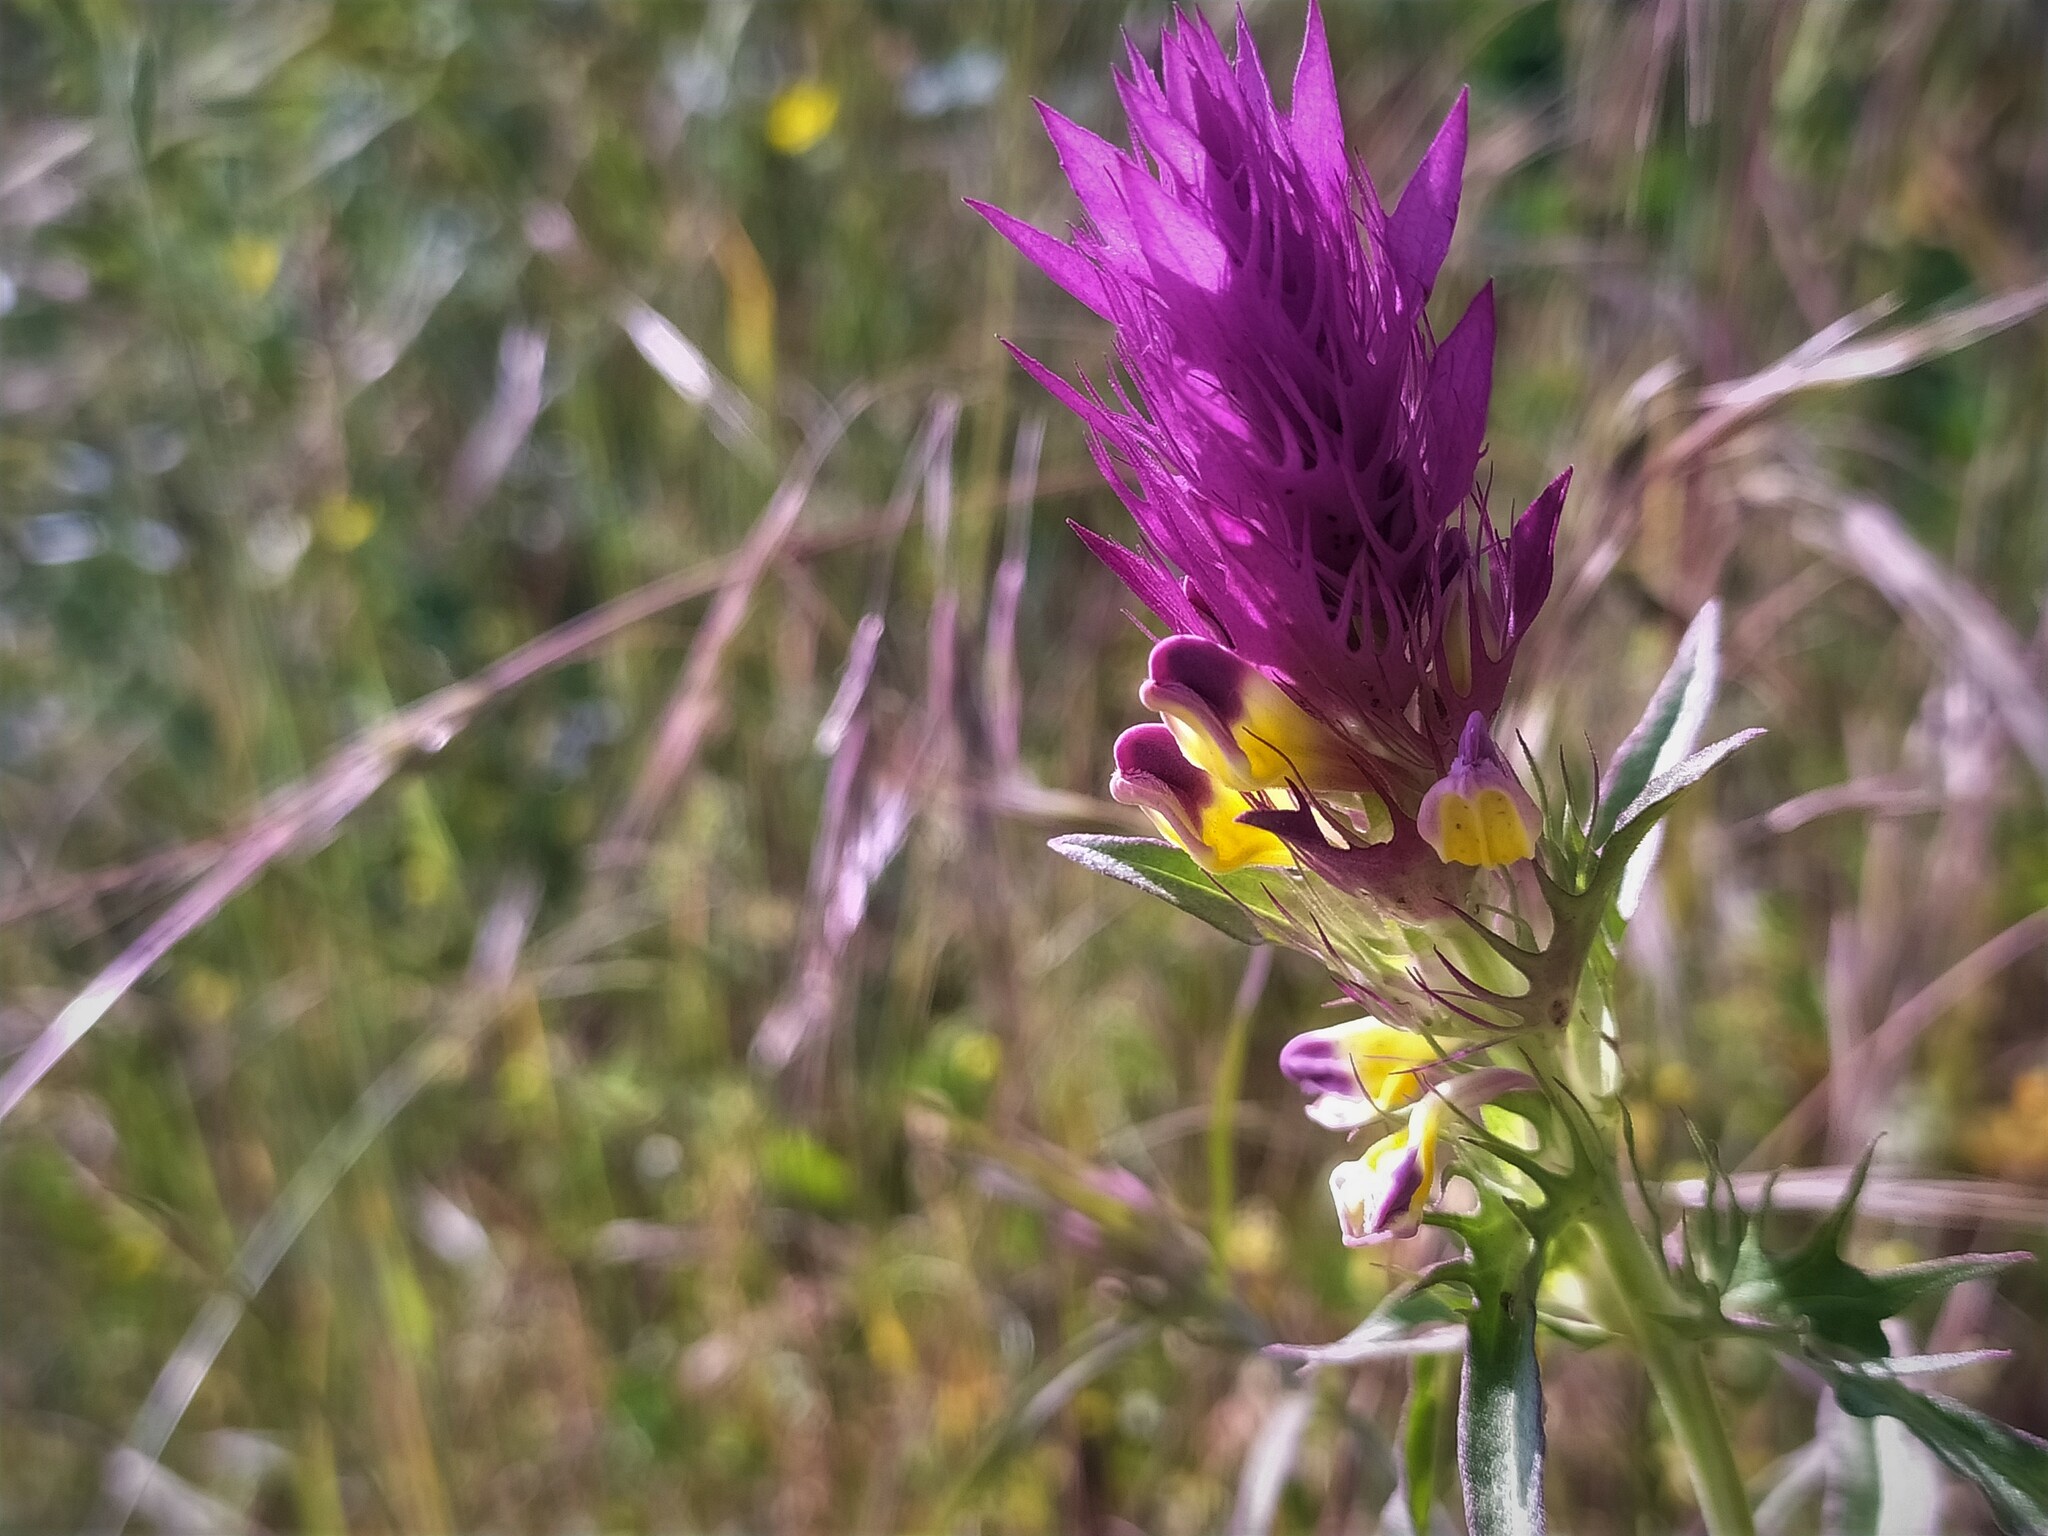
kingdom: Plantae
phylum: Tracheophyta
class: Magnoliopsida
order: Lamiales
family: Orobanchaceae
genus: Melampyrum
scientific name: Melampyrum arvense
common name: Field cow-wheat
